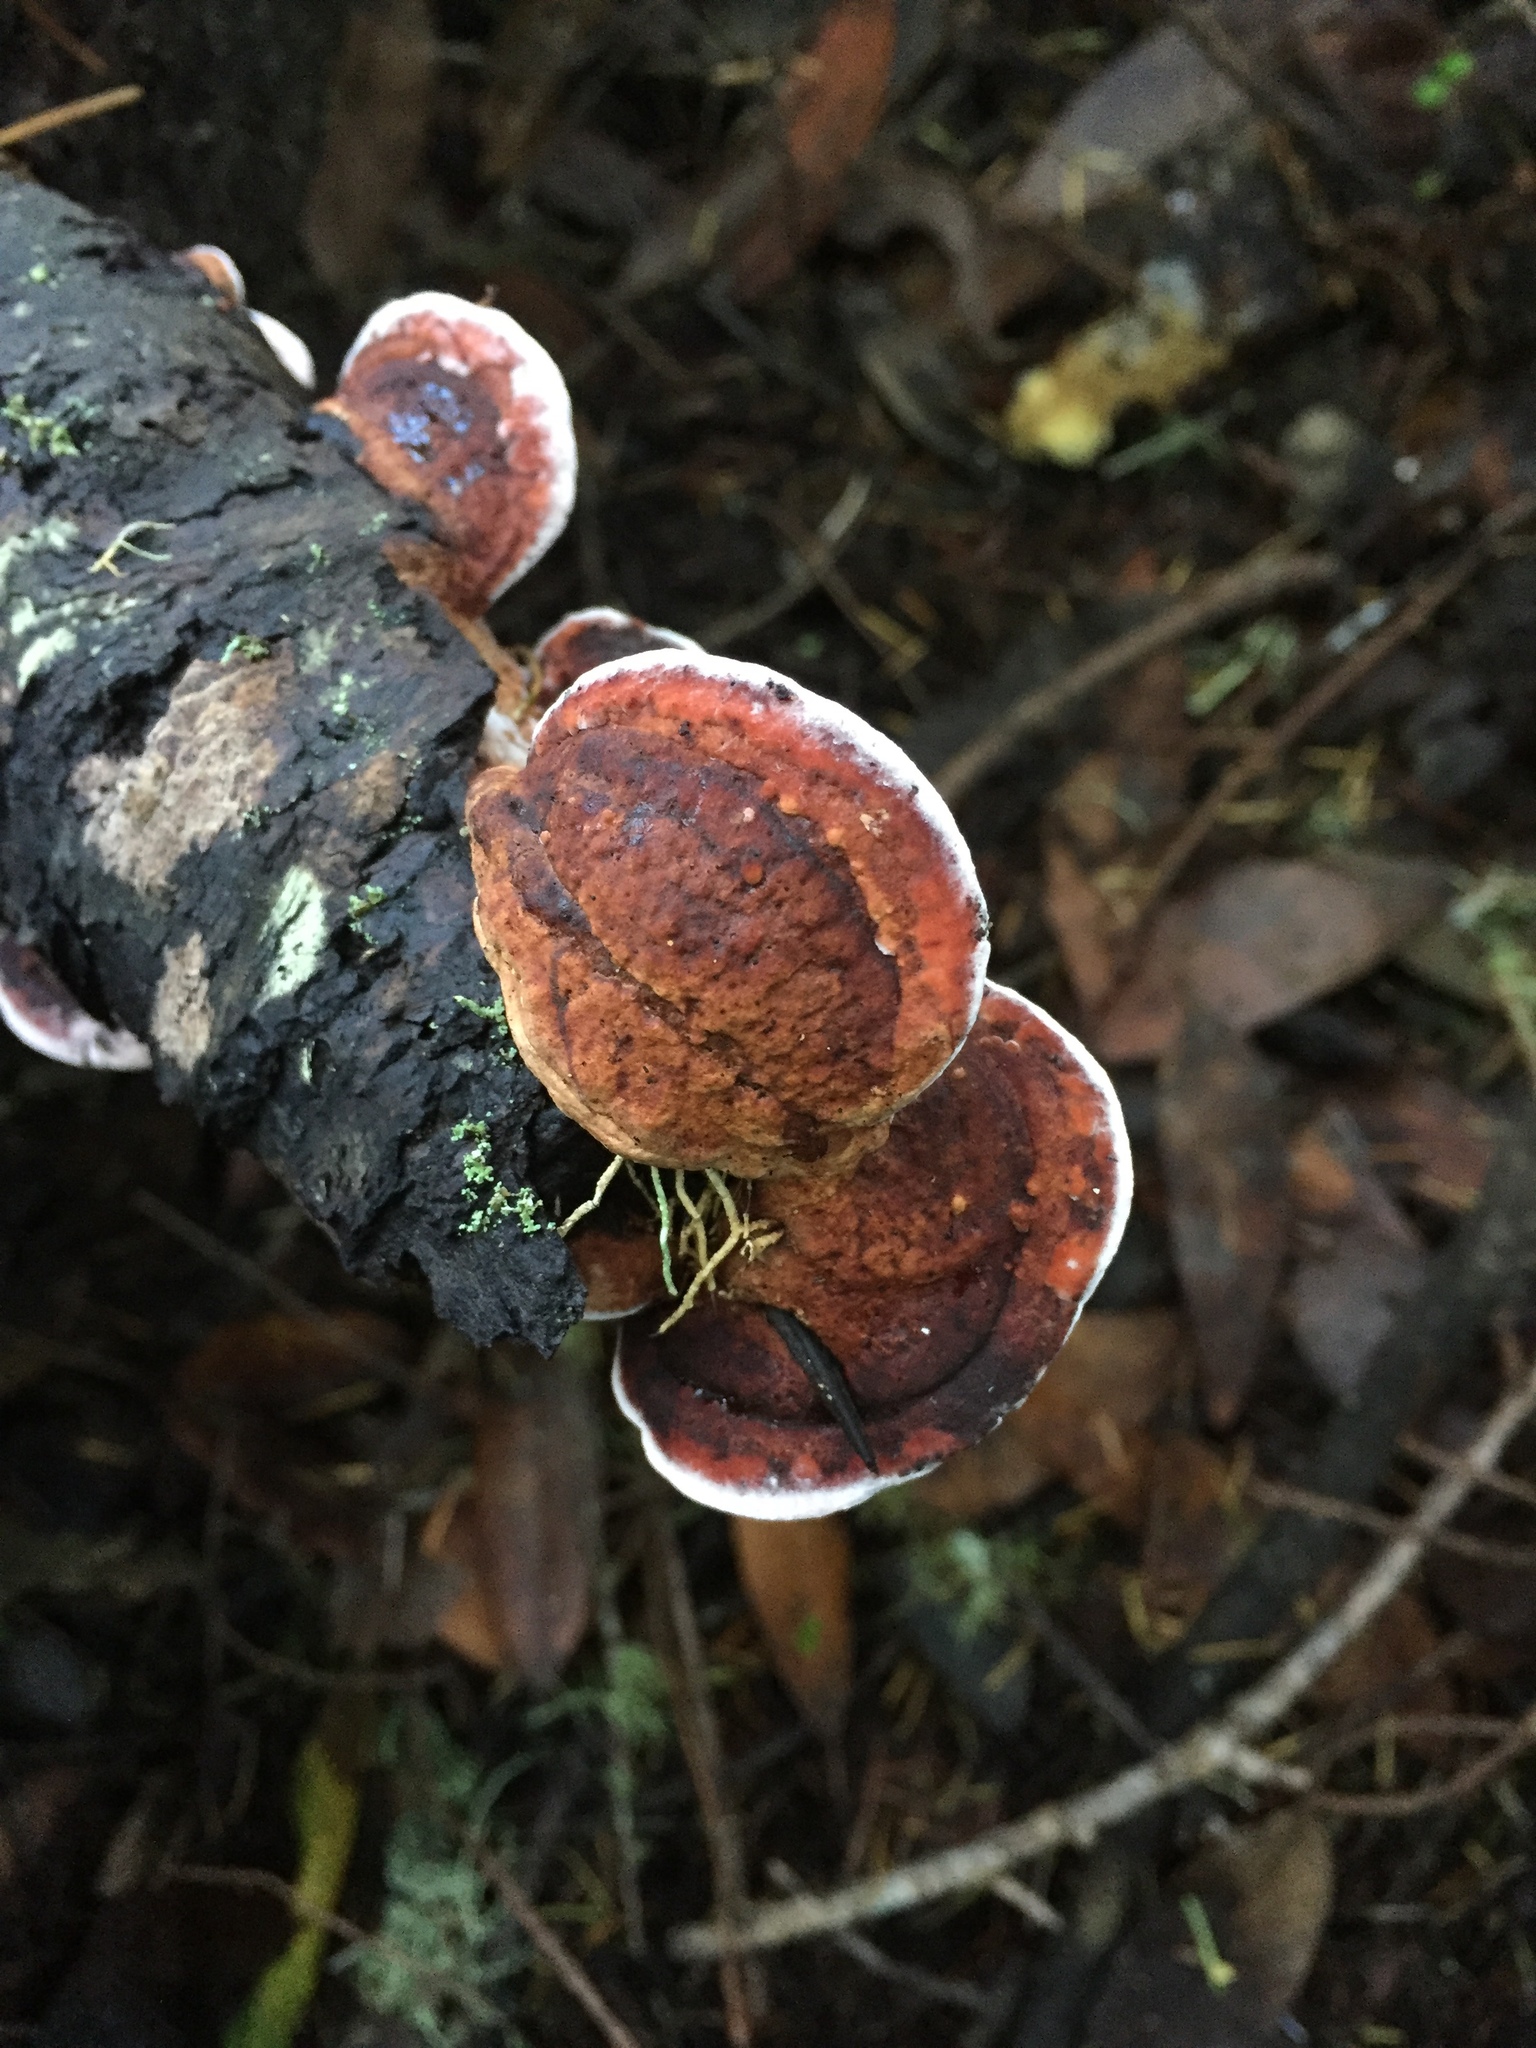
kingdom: Fungi
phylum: Basidiomycota
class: Agaricomycetes
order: Polyporales
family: Fomitopsidaceae
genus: Rhodofomes
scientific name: Rhodofomes cajanderi
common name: Rosy conk
